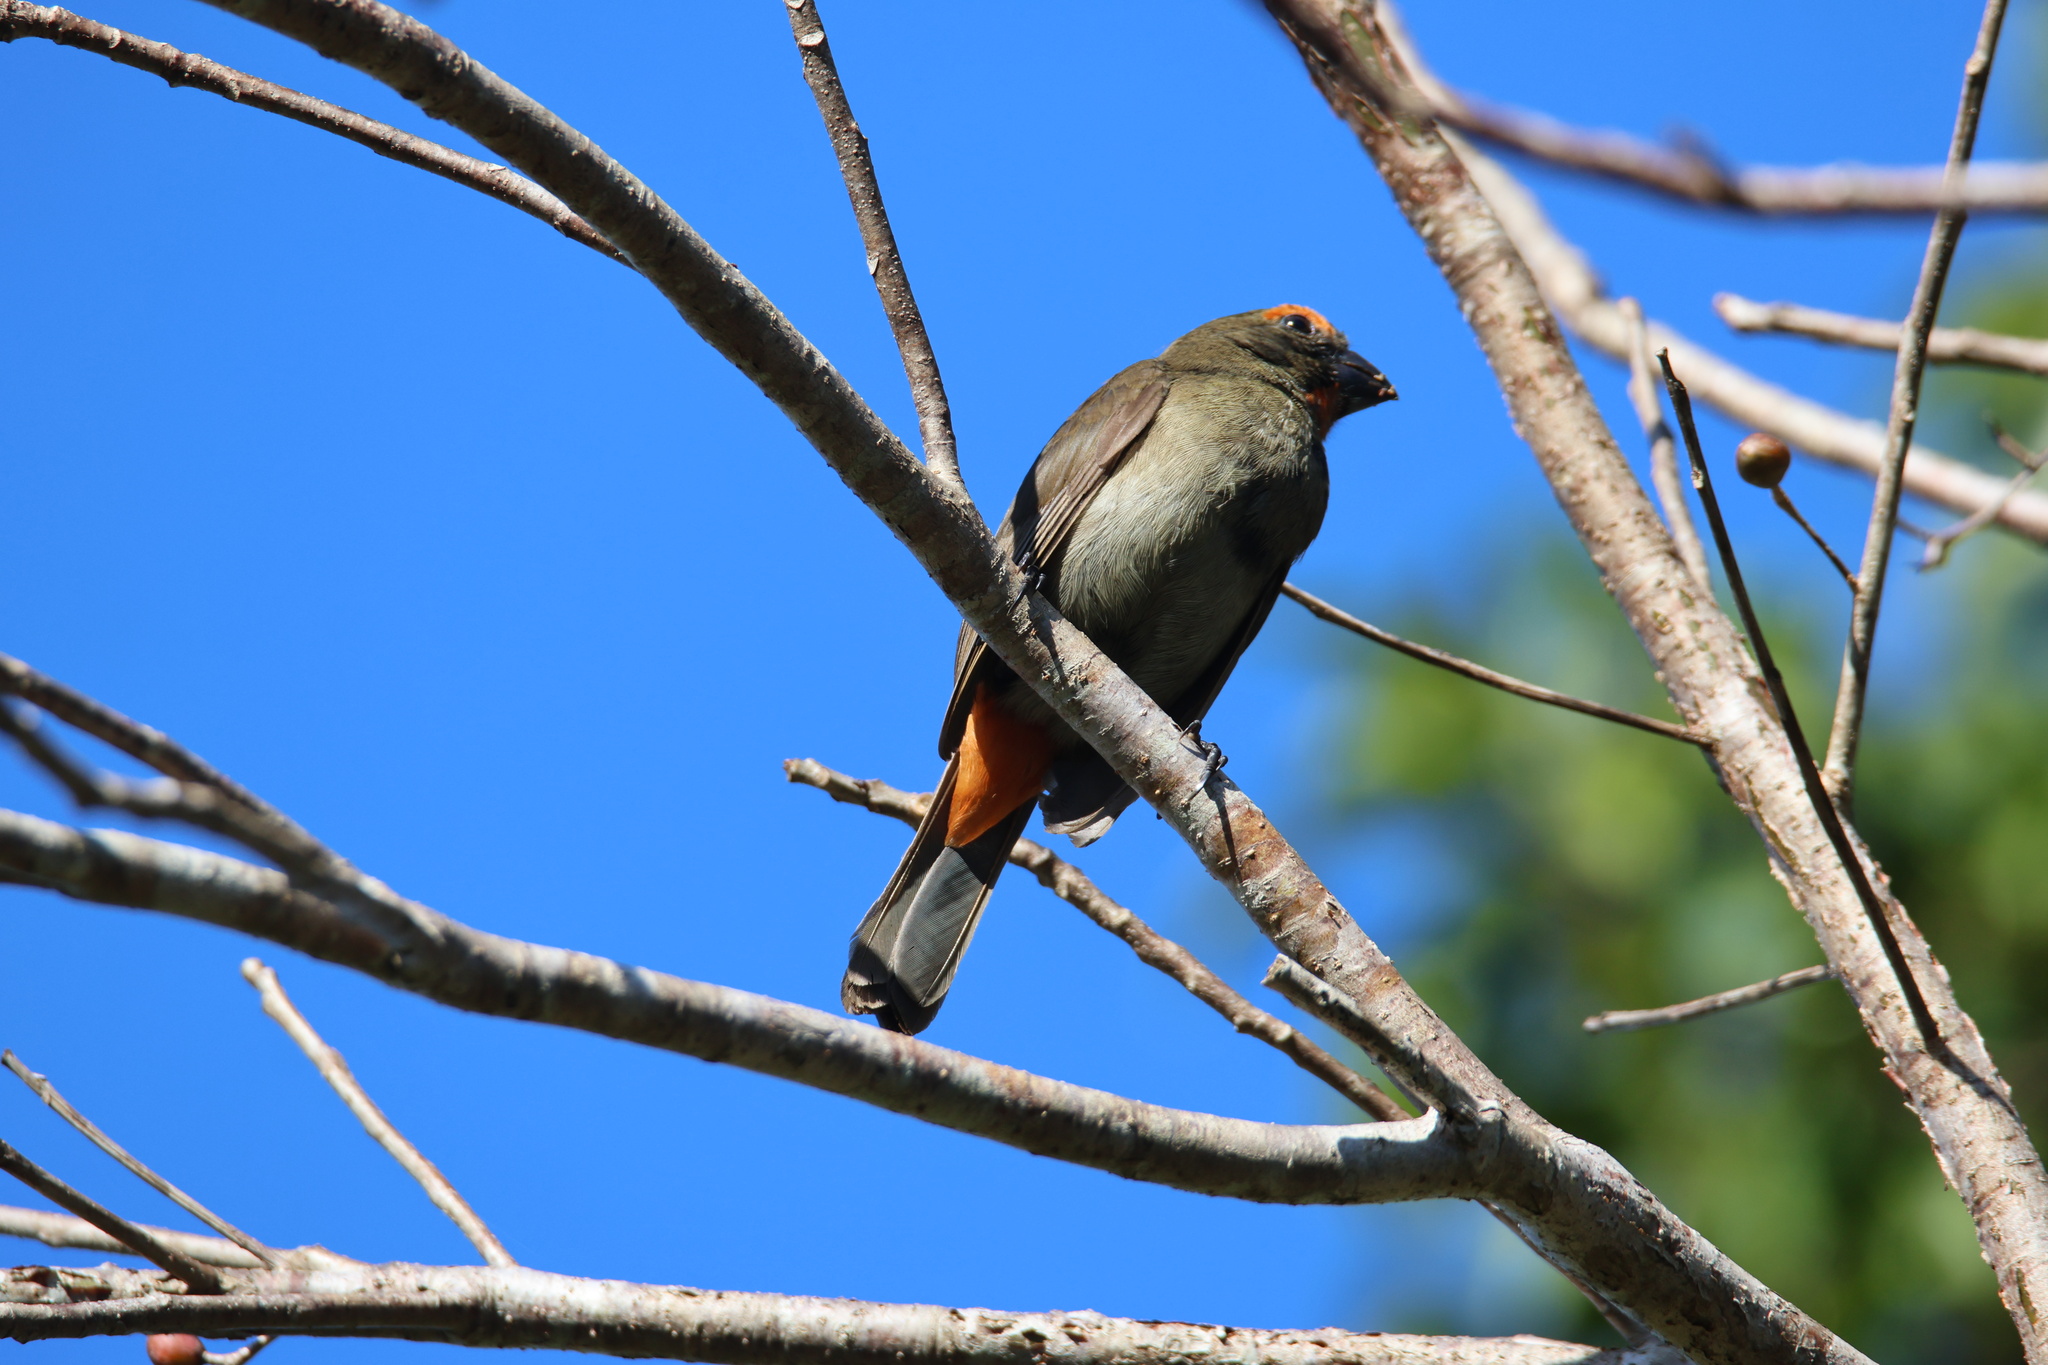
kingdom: Animalia
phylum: Chordata
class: Aves
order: Passeriformes
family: Thraupidae
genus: Melopyrrha
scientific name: Melopyrrha violacea
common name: Greater antillean bullfinch
